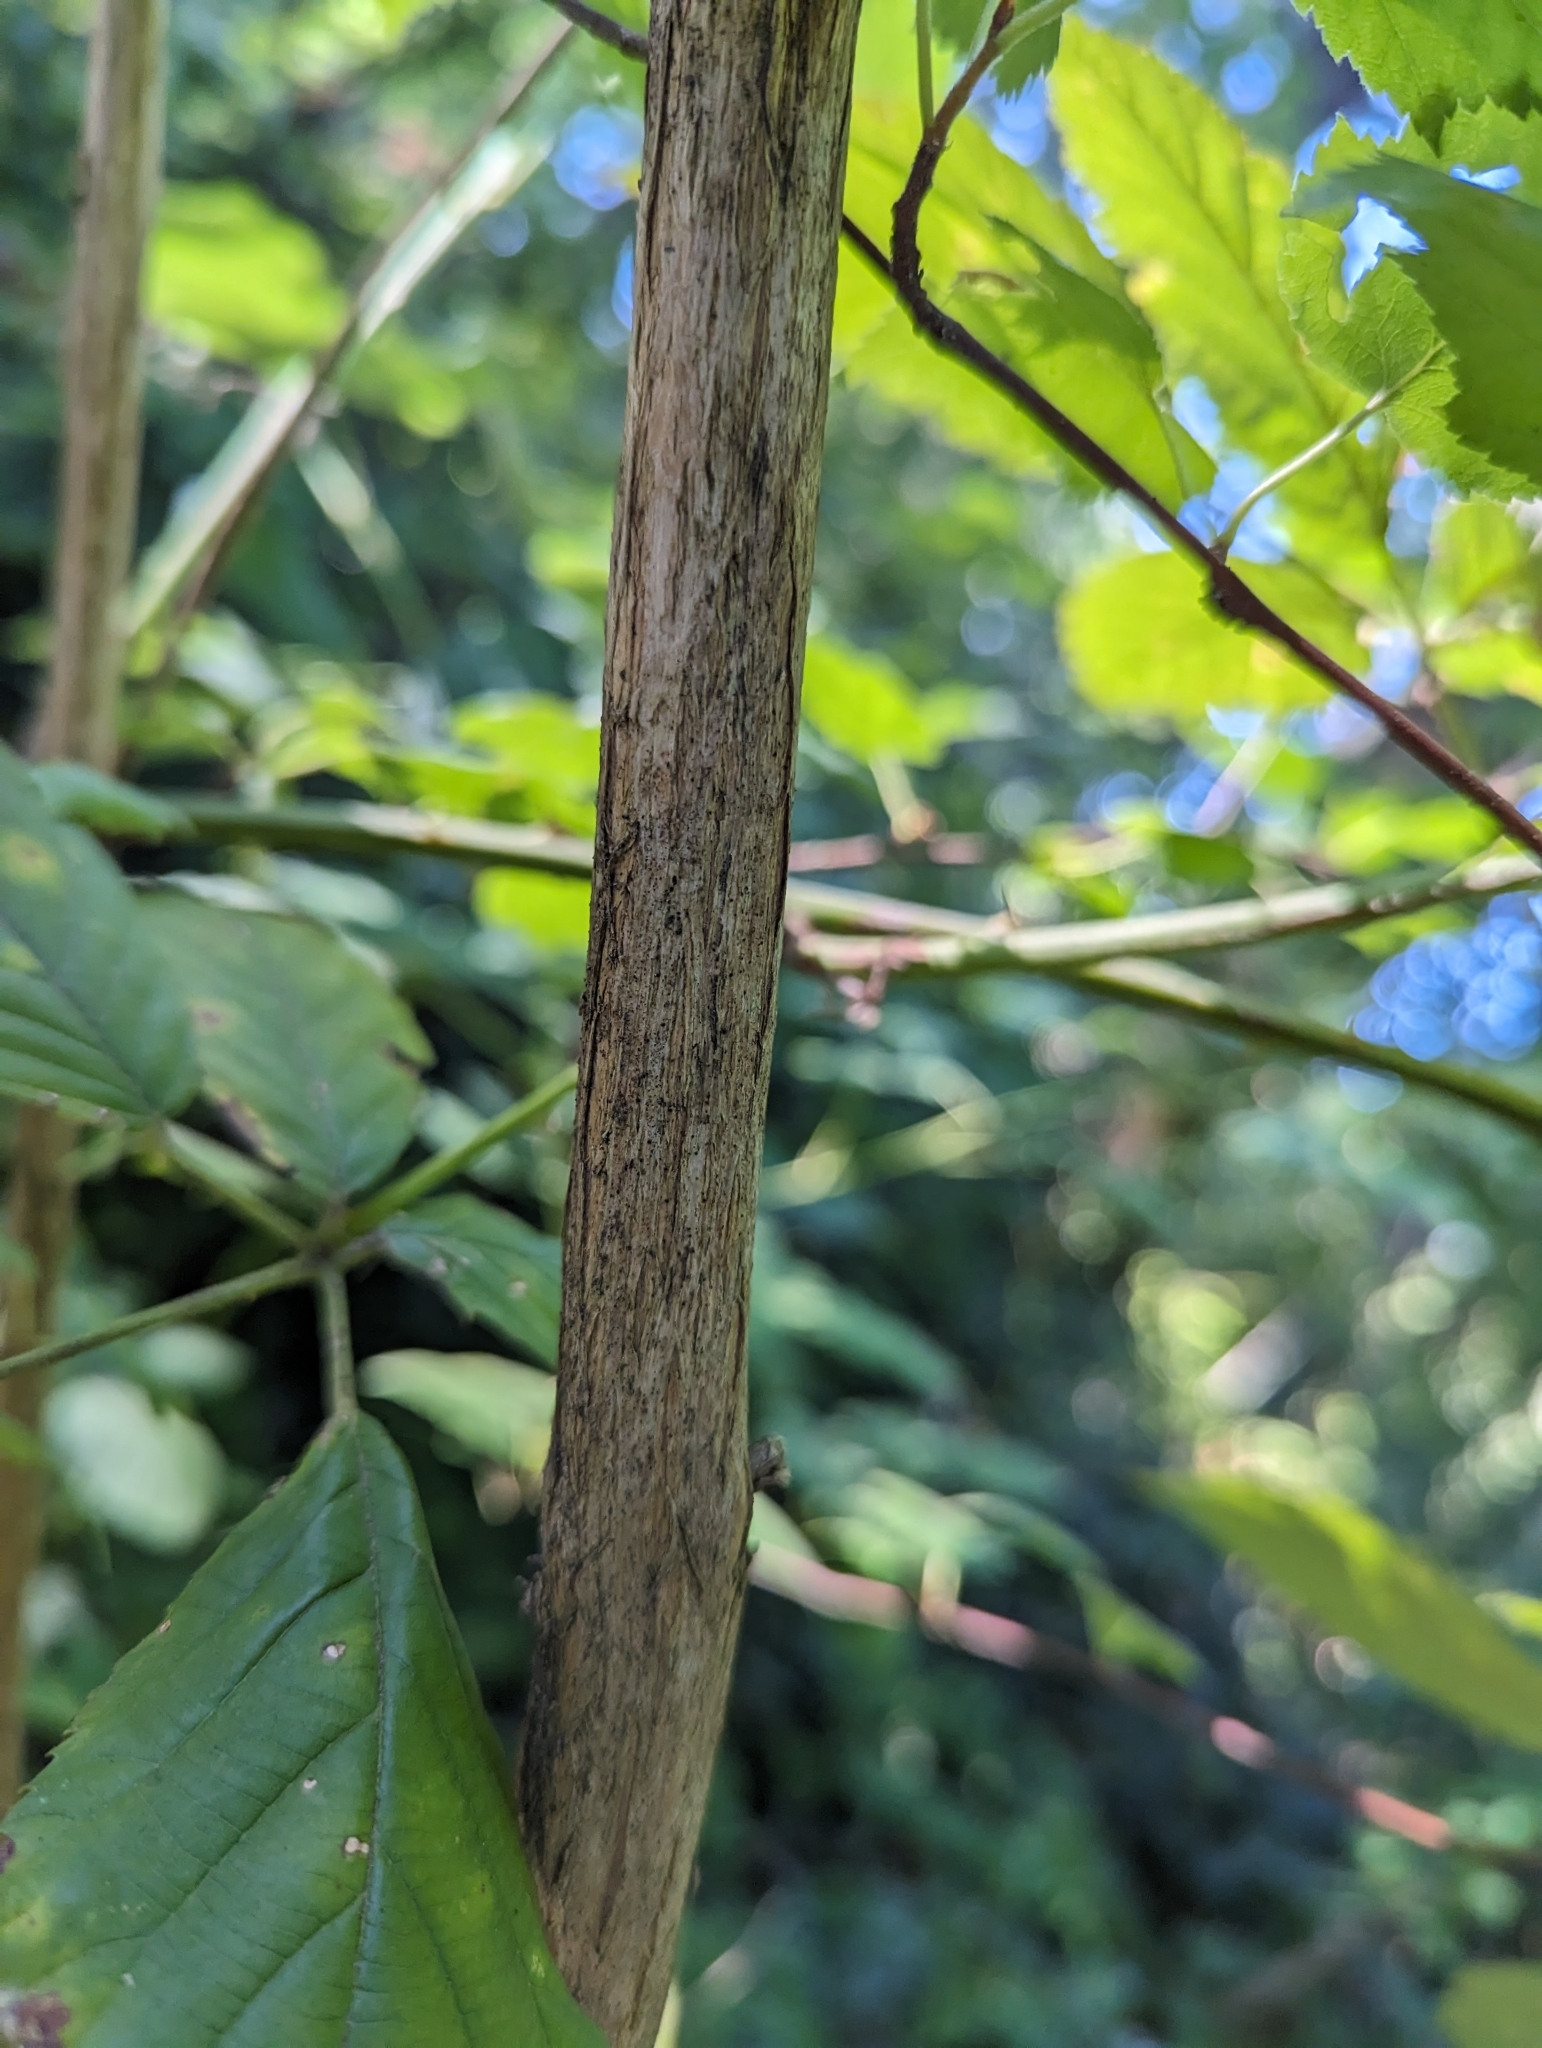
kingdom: Plantae
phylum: Tracheophyta
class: Magnoliopsida
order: Lamiales
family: Scrophulariaceae
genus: Buddleja
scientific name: Buddleja davidii
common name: Butterfly-bush
